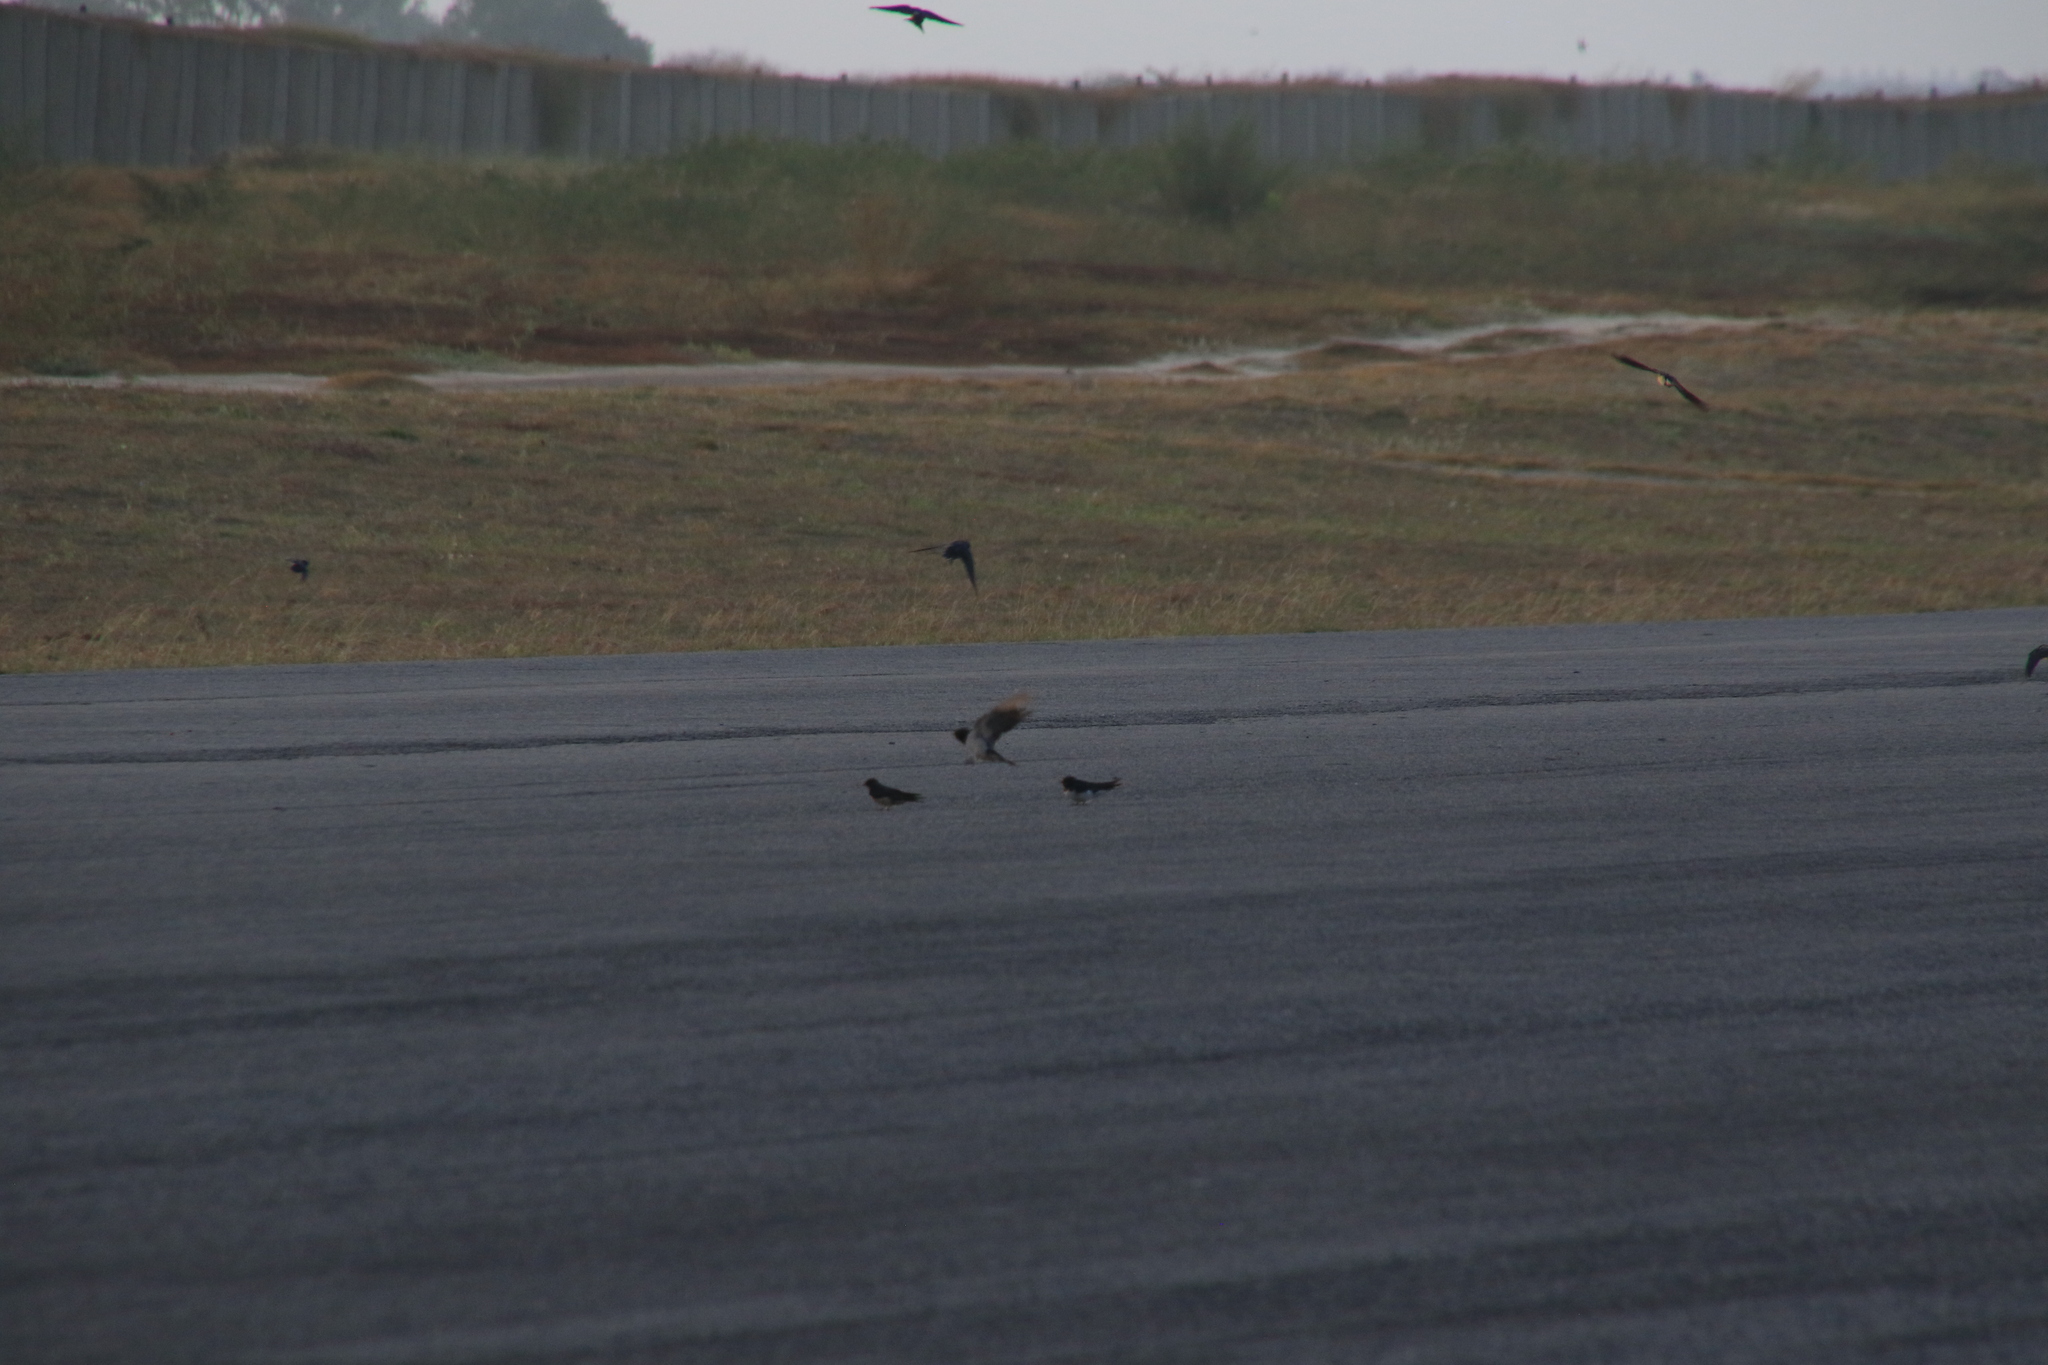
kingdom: Animalia
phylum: Chordata
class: Aves
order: Passeriformes
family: Hirundinidae
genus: Hirundo
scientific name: Hirundo rustica
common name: Barn swallow
